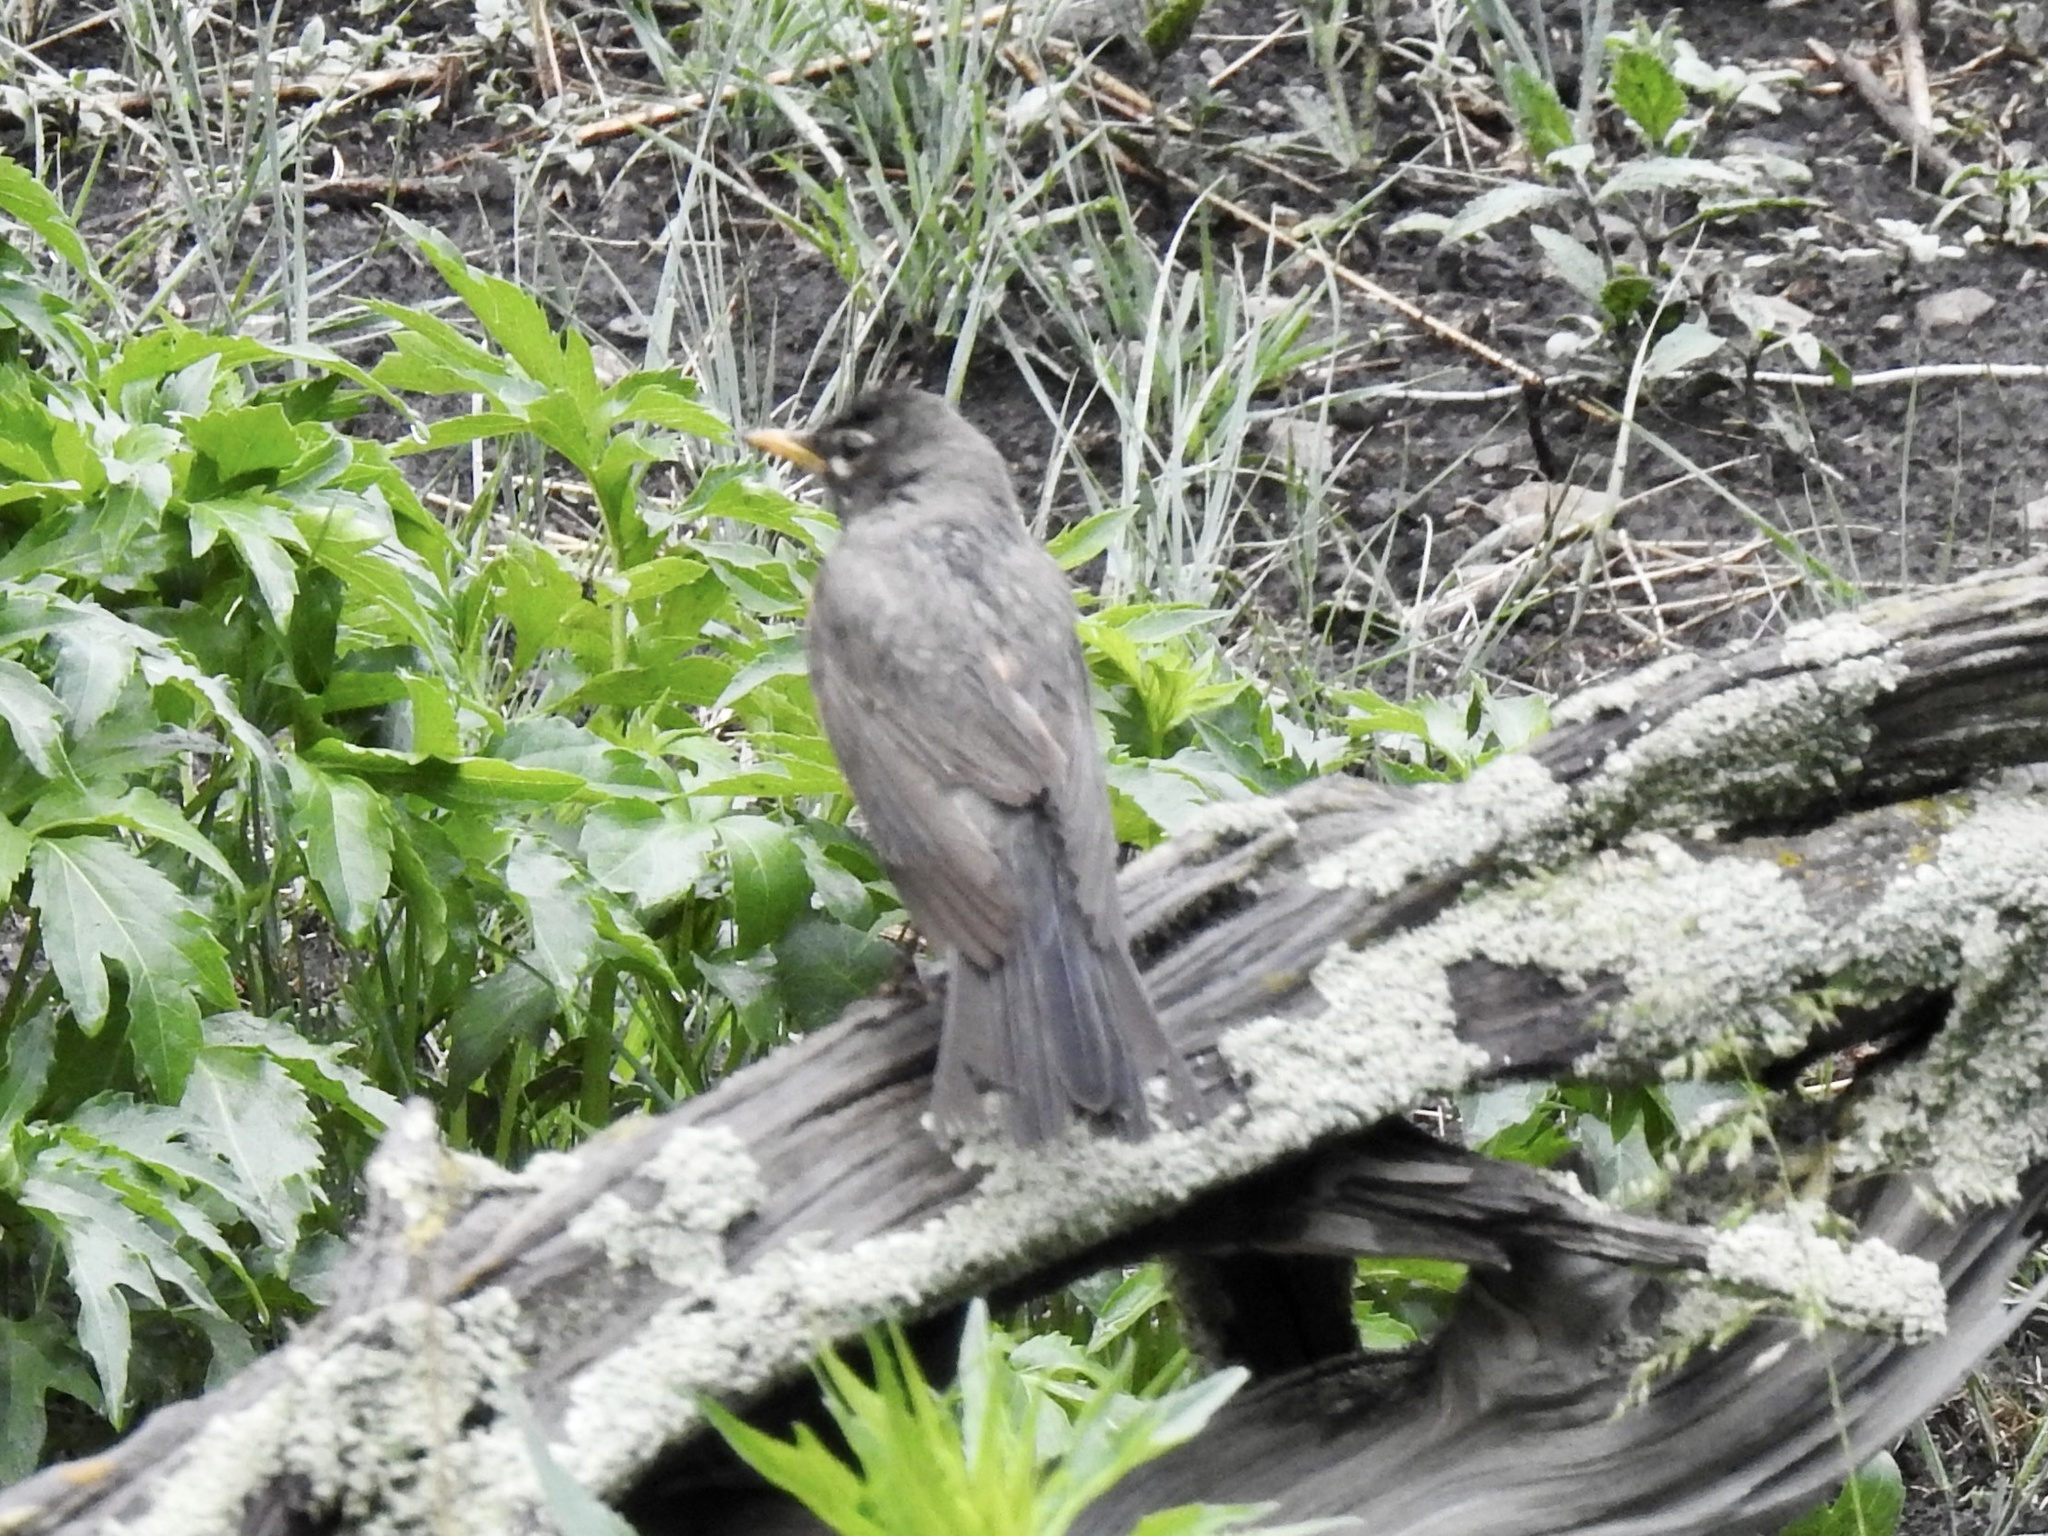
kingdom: Animalia
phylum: Chordata
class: Aves
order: Passeriformes
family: Turdidae
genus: Turdus
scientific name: Turdus migratorius
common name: American robin
